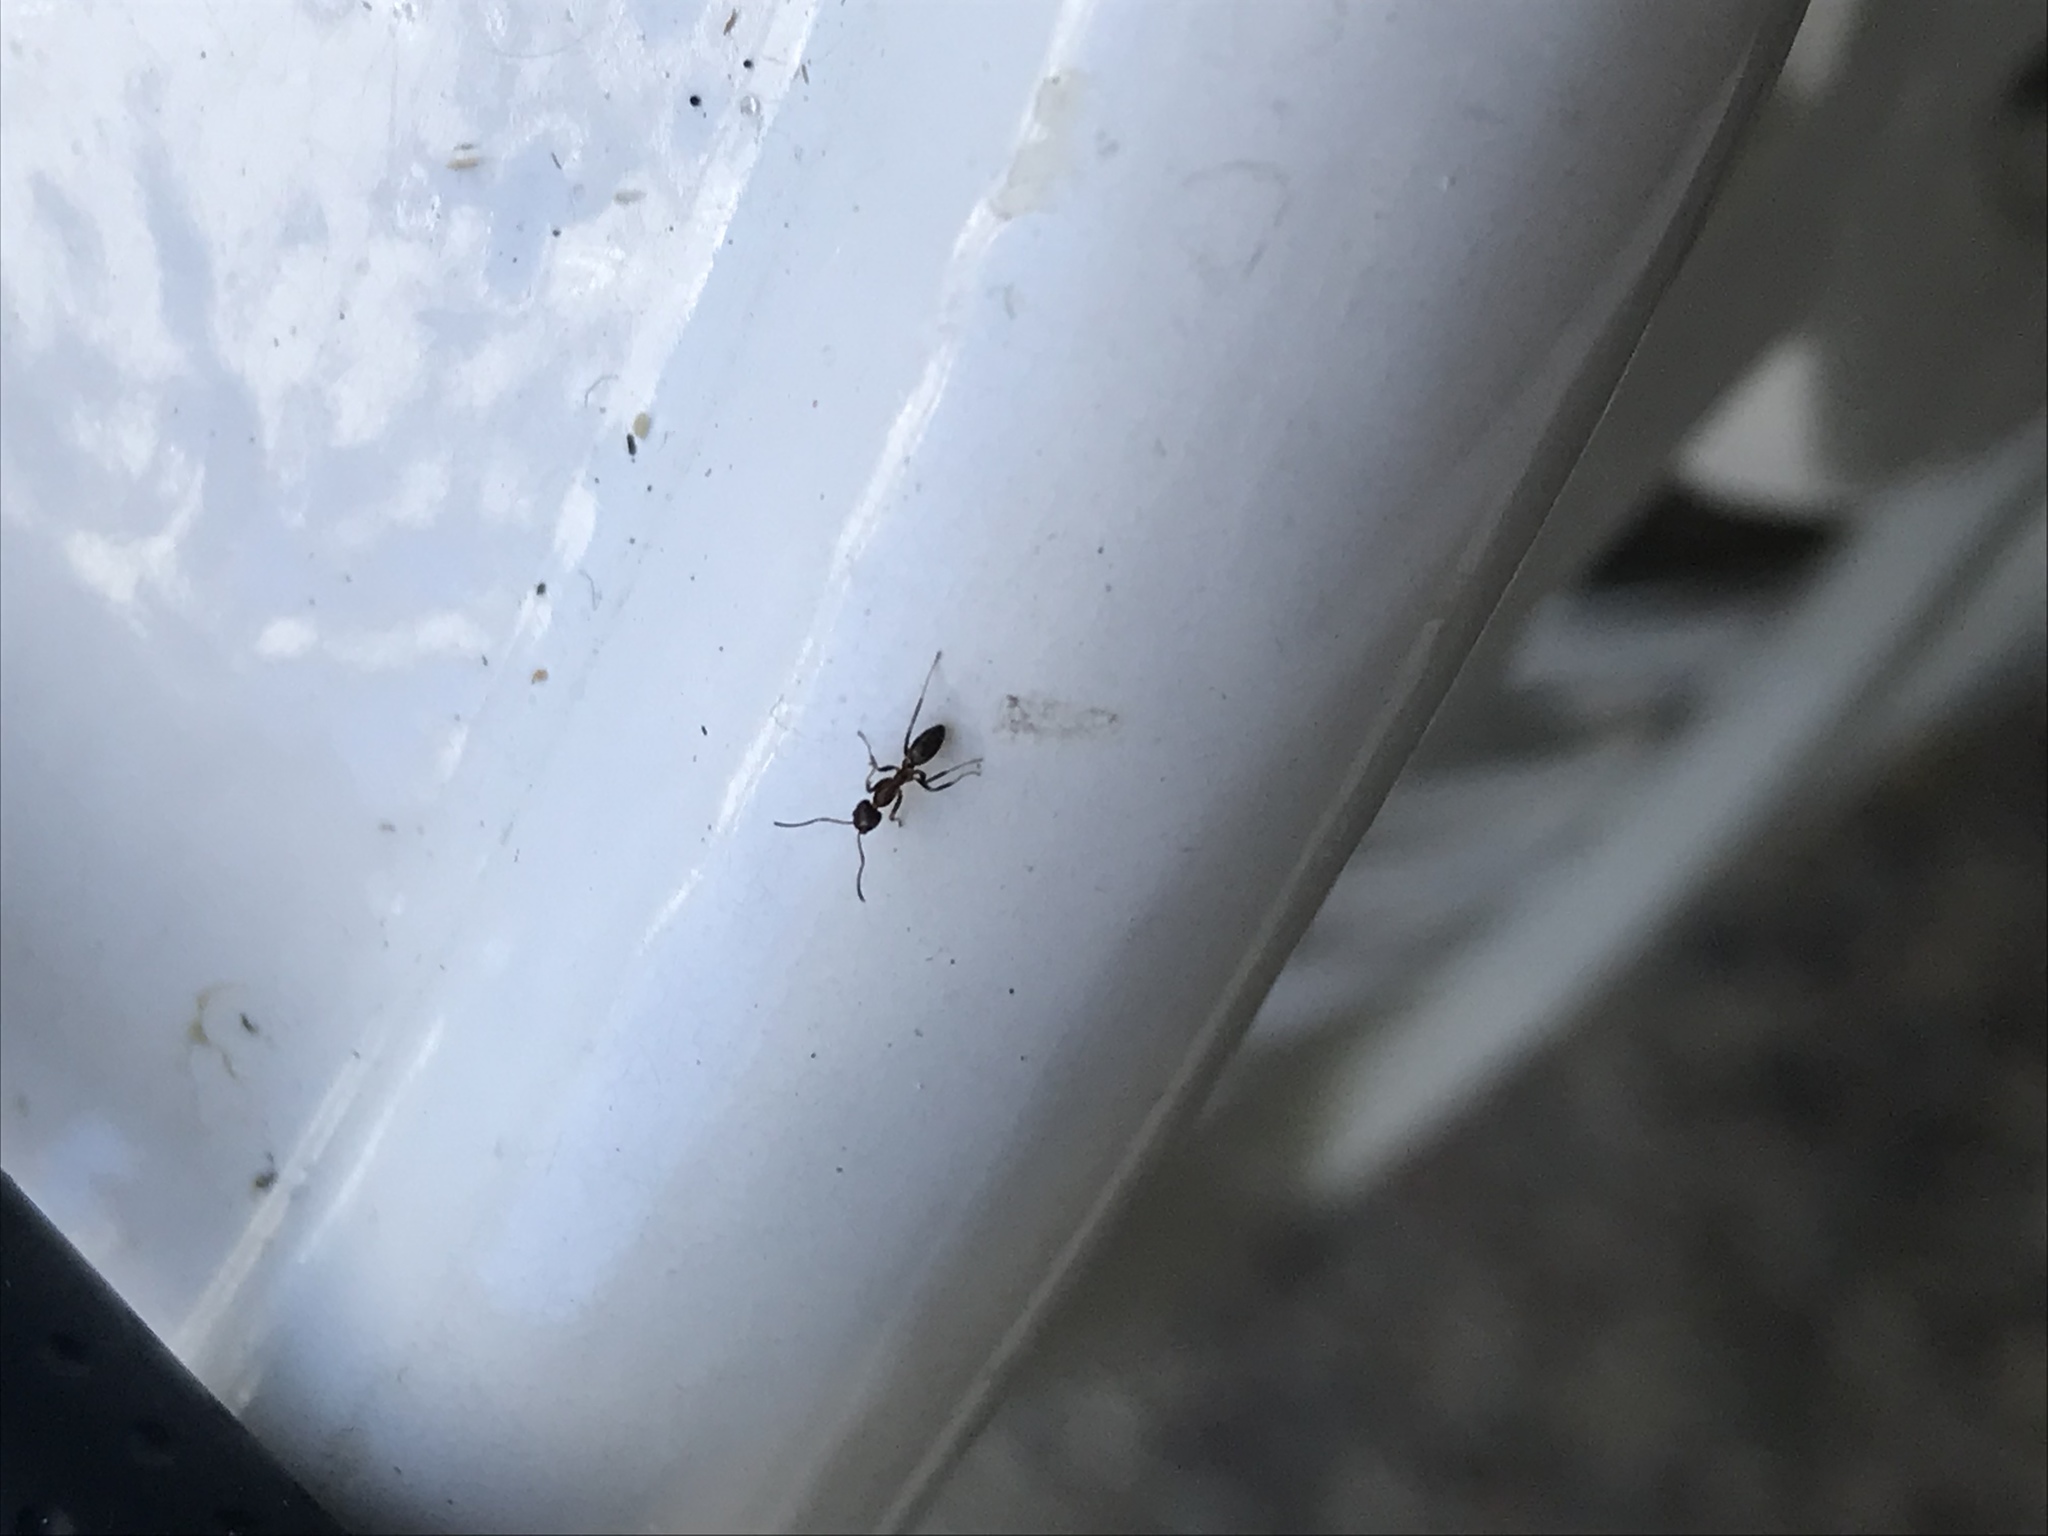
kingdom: Animalia
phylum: Arthropoda
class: Insecta
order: Hymenoptera
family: Formicidae
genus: Linepithema
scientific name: Linepithema humile
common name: Argentine ant
